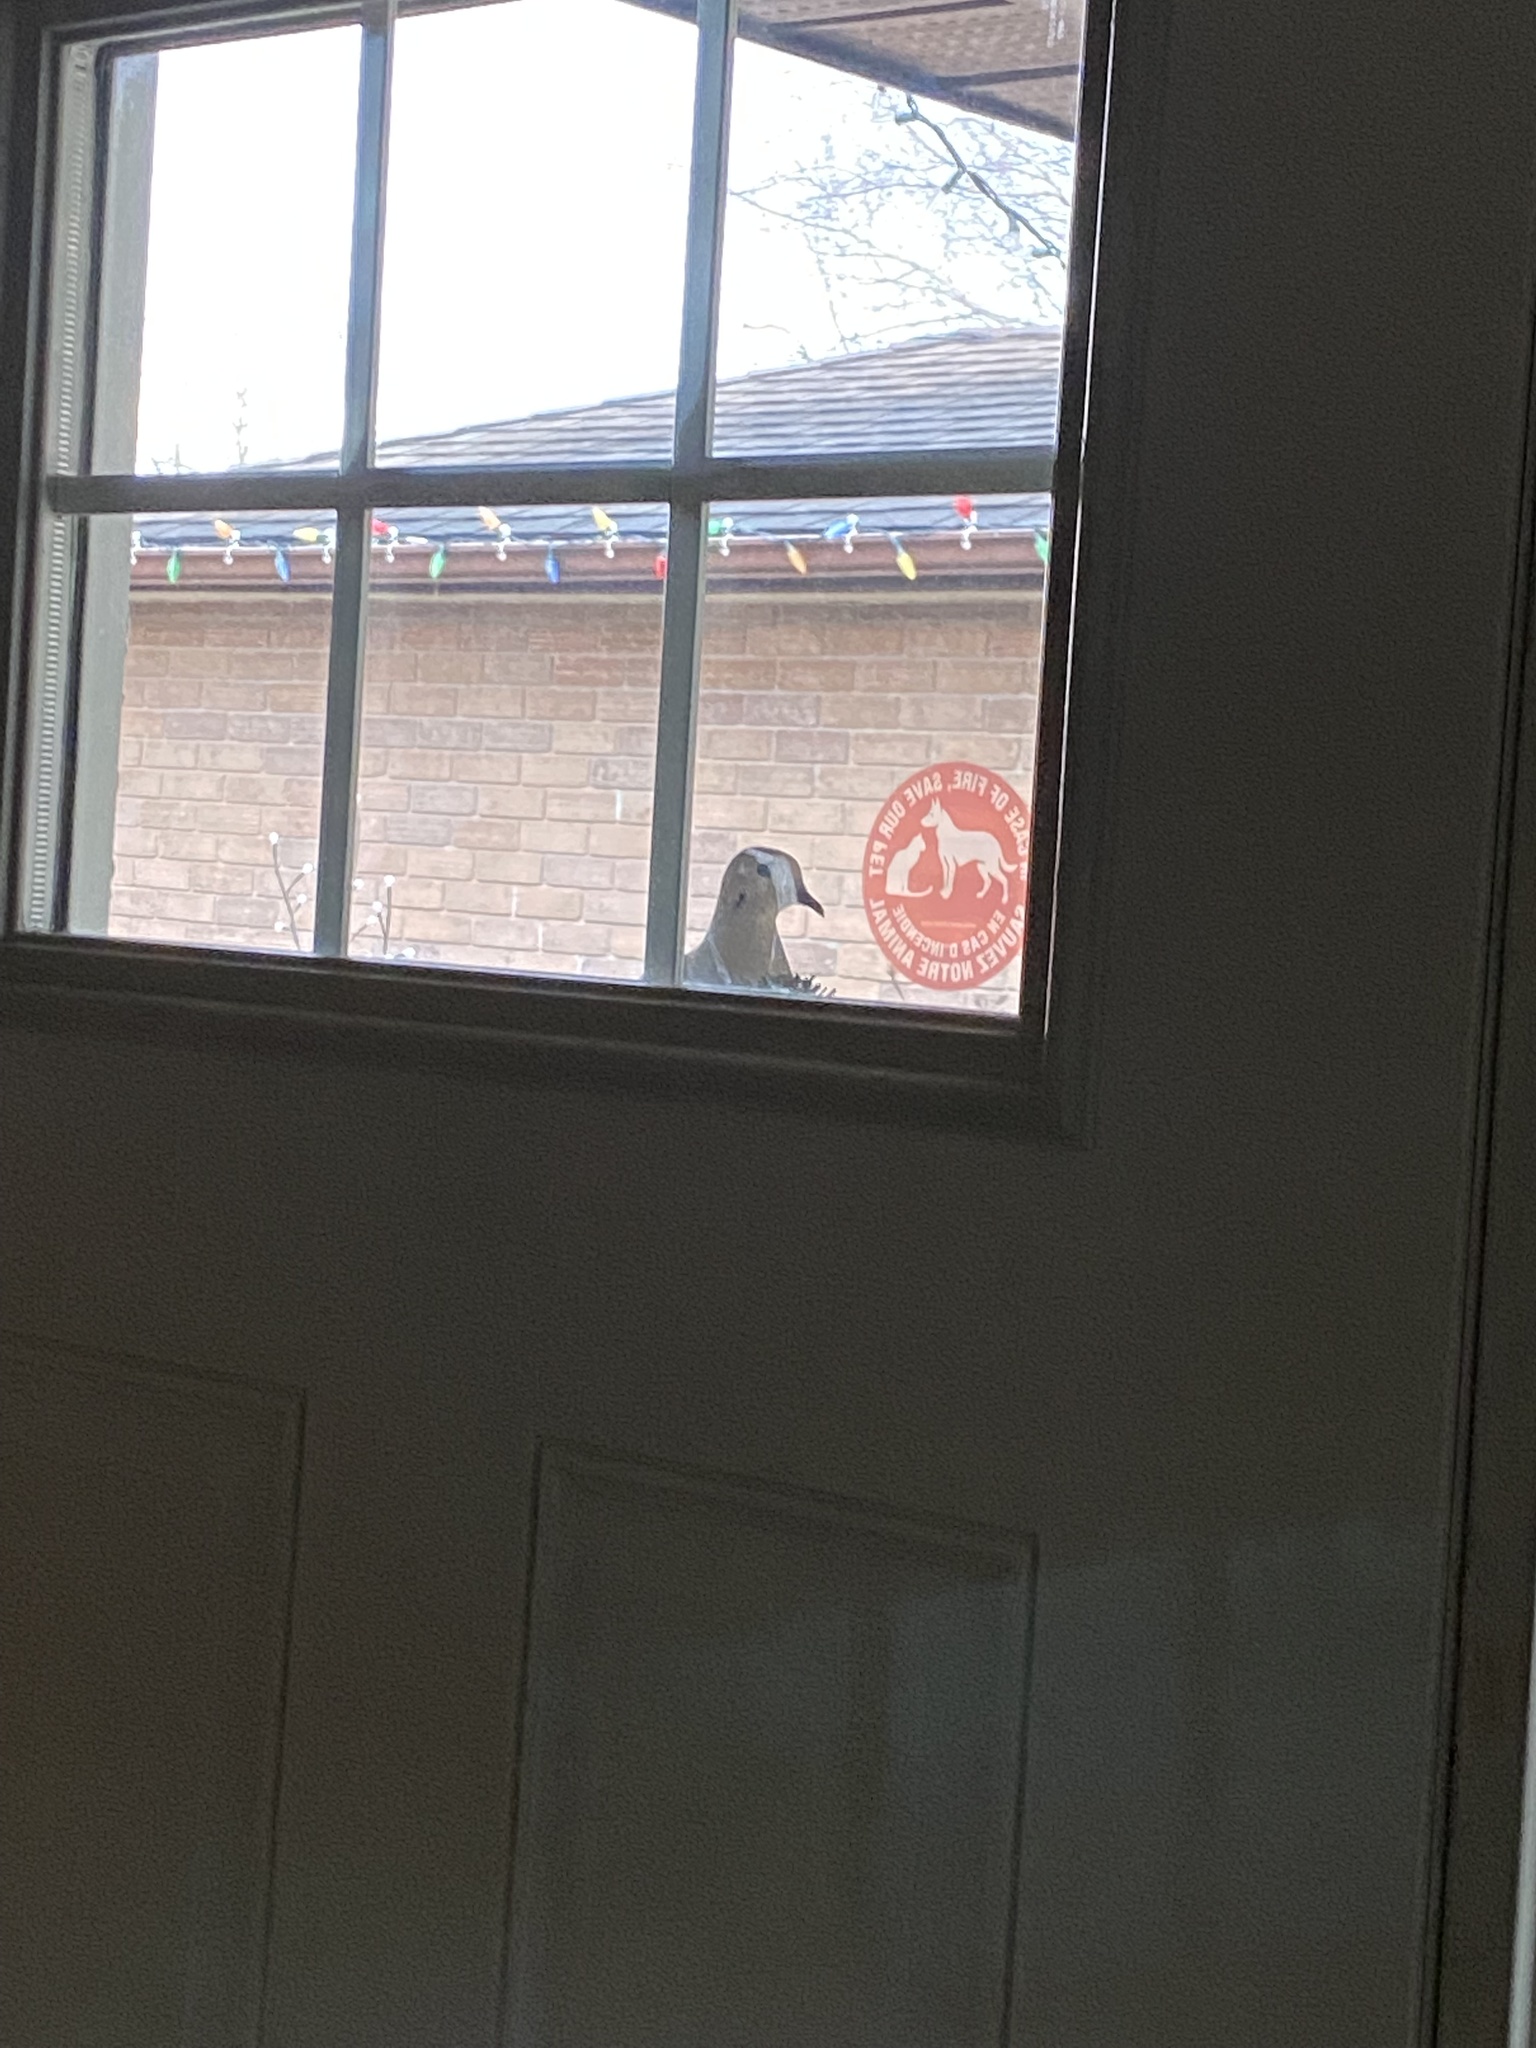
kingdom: Animalia
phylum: Chordata
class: Aves
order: Columbiformes
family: Columbidae
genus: Zenaida
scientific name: Zenaida macroura
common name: Mourning dove
